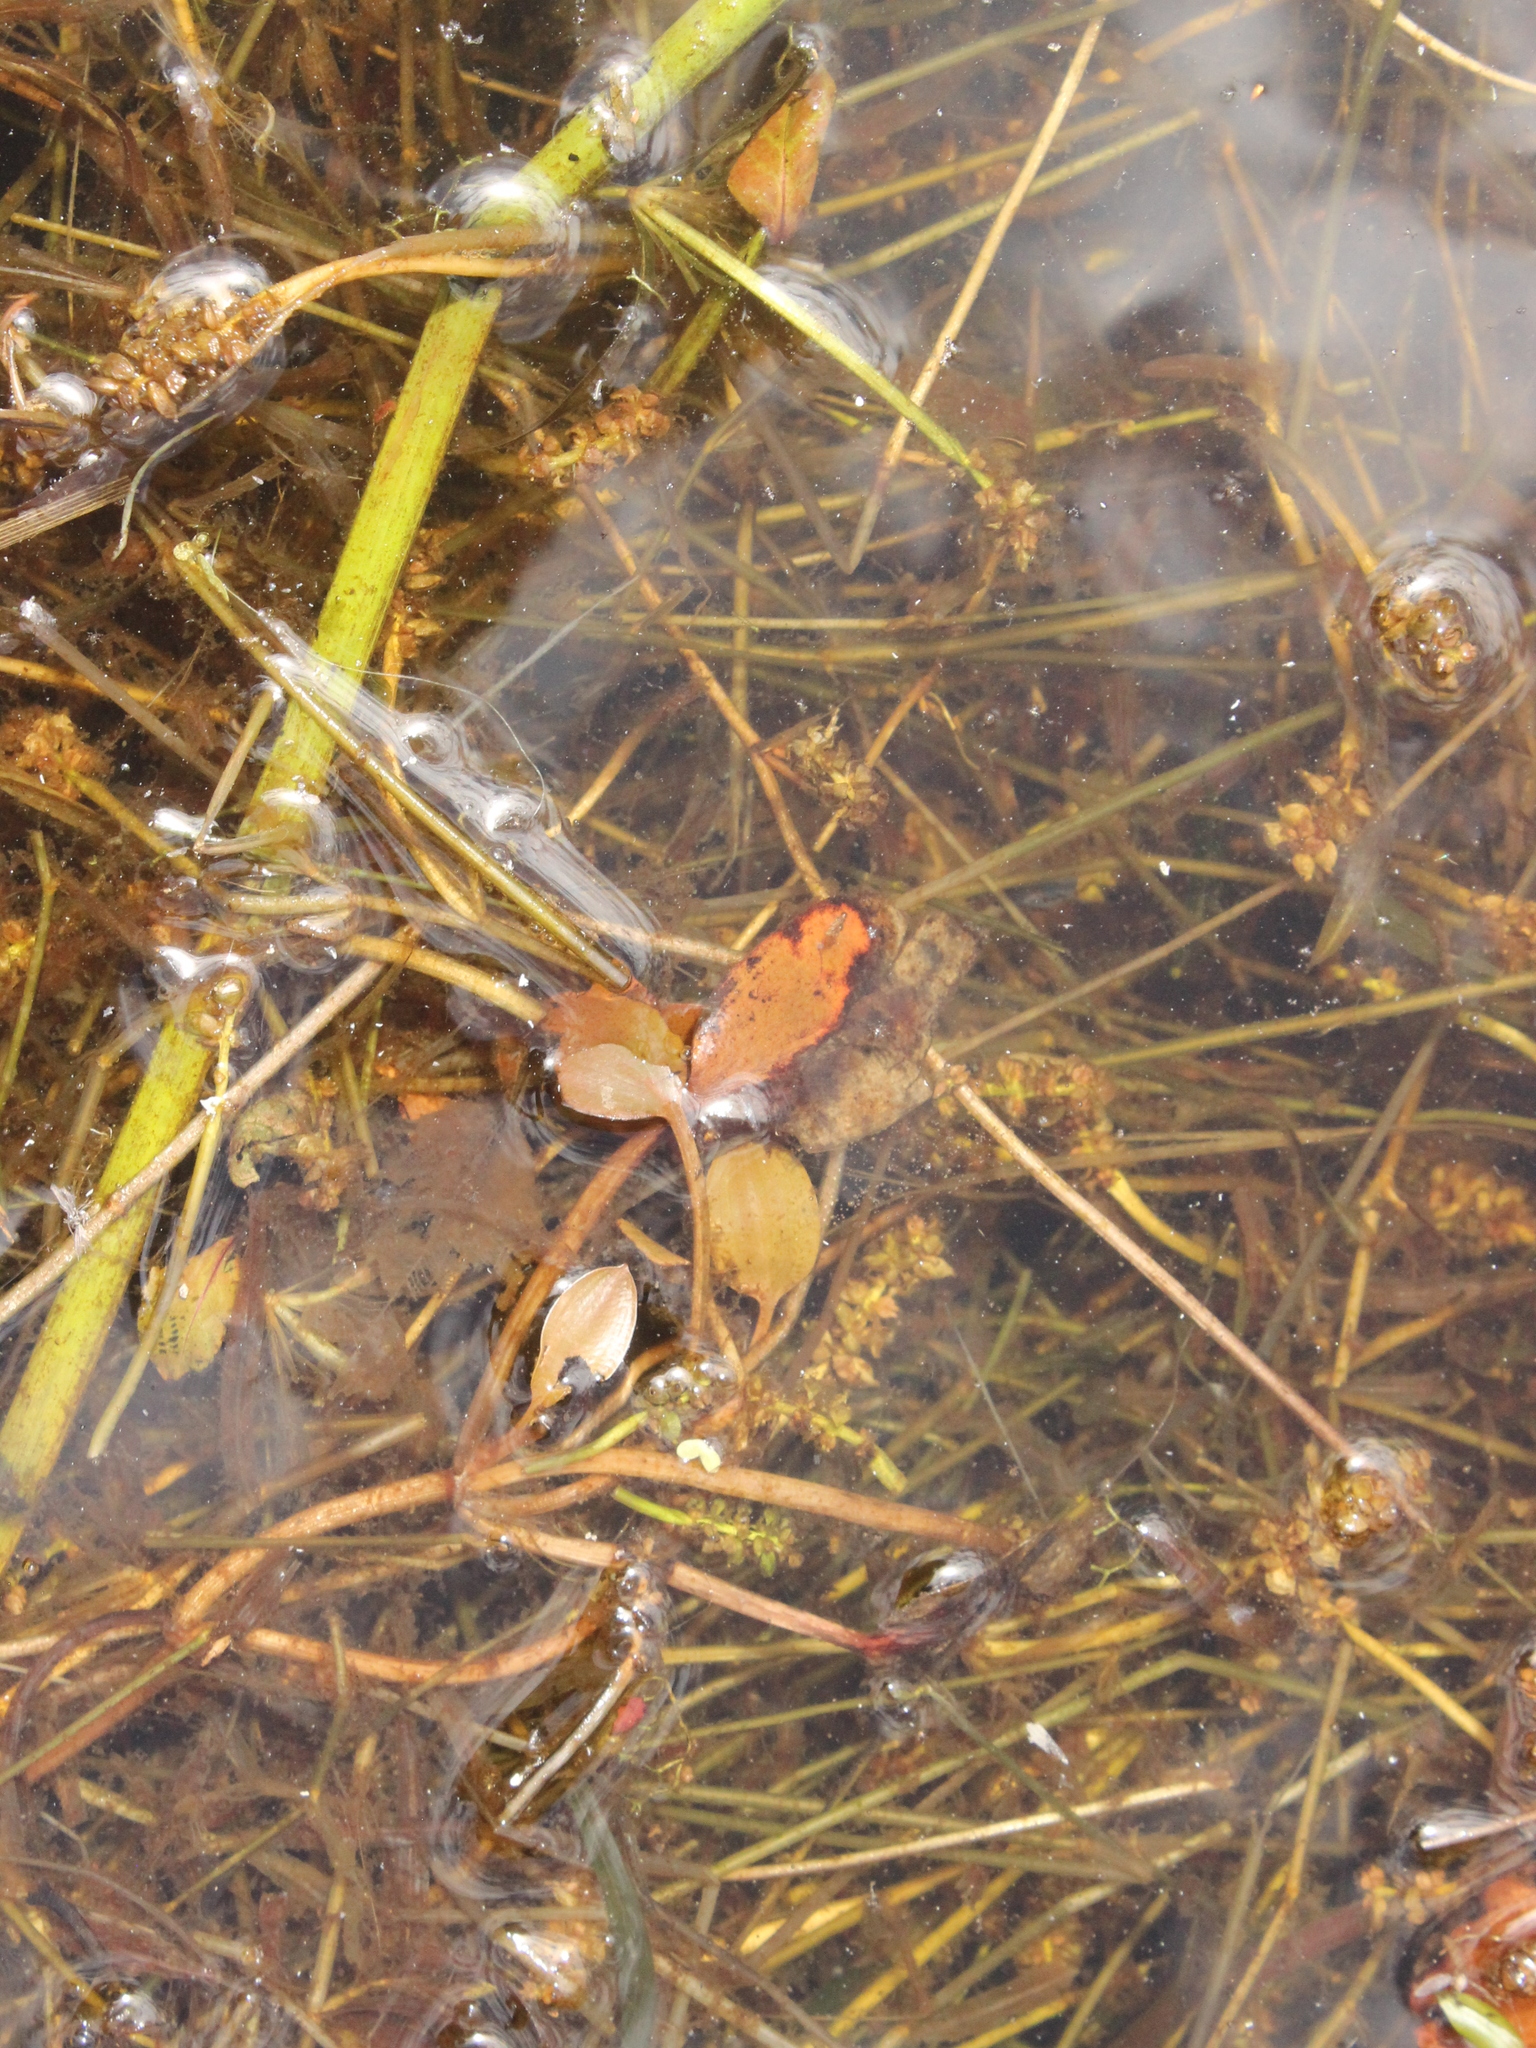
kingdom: Plantae
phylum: Tracheophyta
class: Liliopsida
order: Alismatales
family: Potamogetonaceae
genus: Potamogeton
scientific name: Potamogeton cheesemanii
